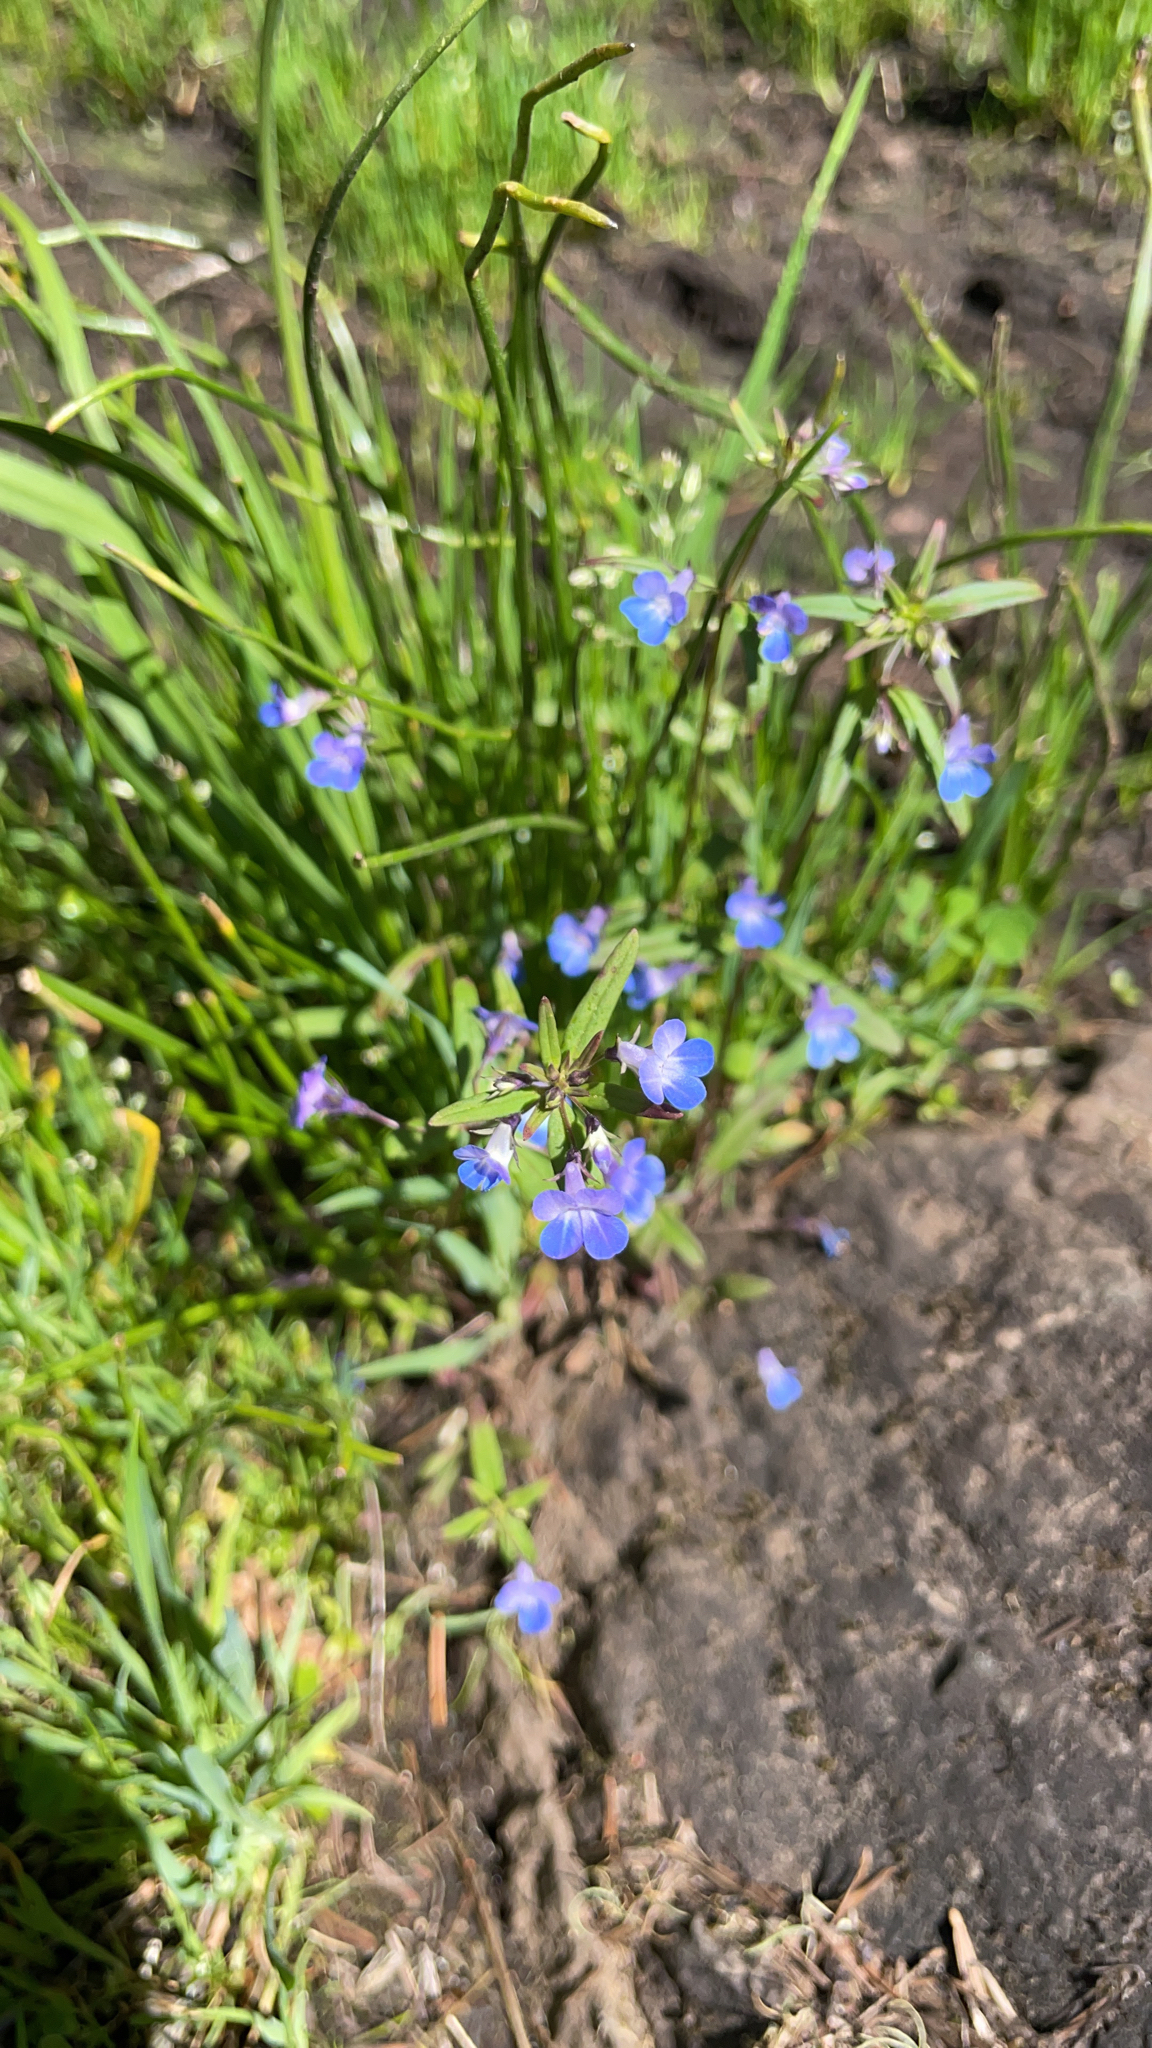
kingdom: Plantae
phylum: Tracheophyta
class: Magnoliopsida
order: Lamiales
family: Plantaginaceae
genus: Collinsia
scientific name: Collinsia parviflora
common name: Blue-lips
